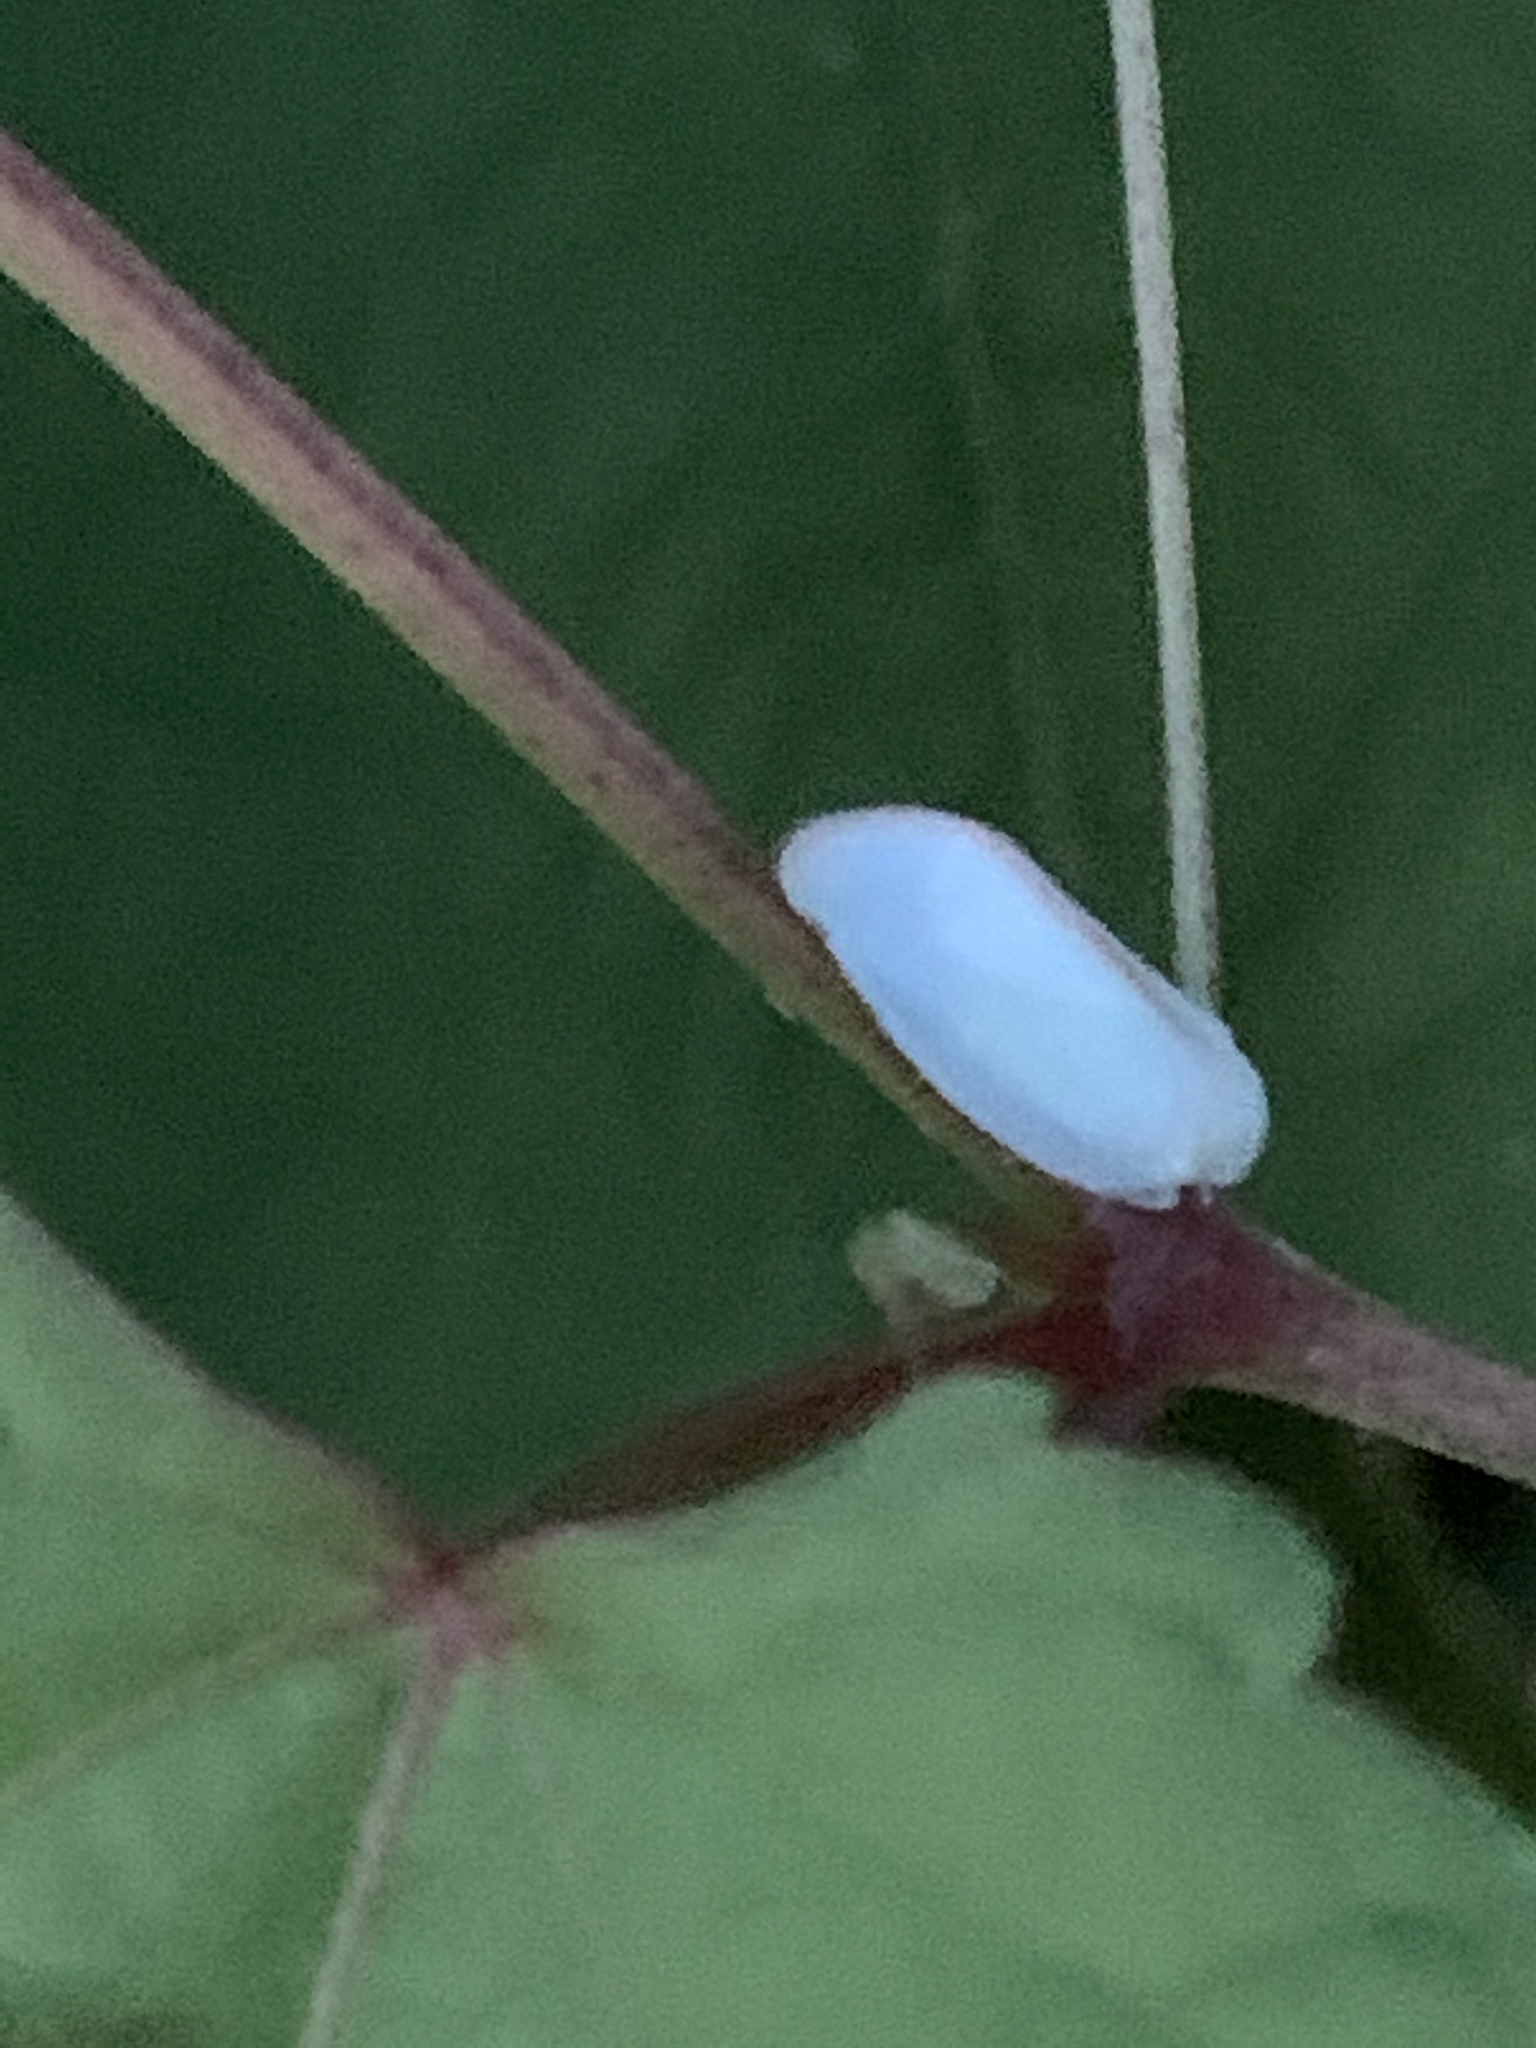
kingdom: Animalia
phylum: Arthropoda
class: Insecta
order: Hemiptera
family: Flatidae
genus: Ormenoides
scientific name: Ormenoides venusta
